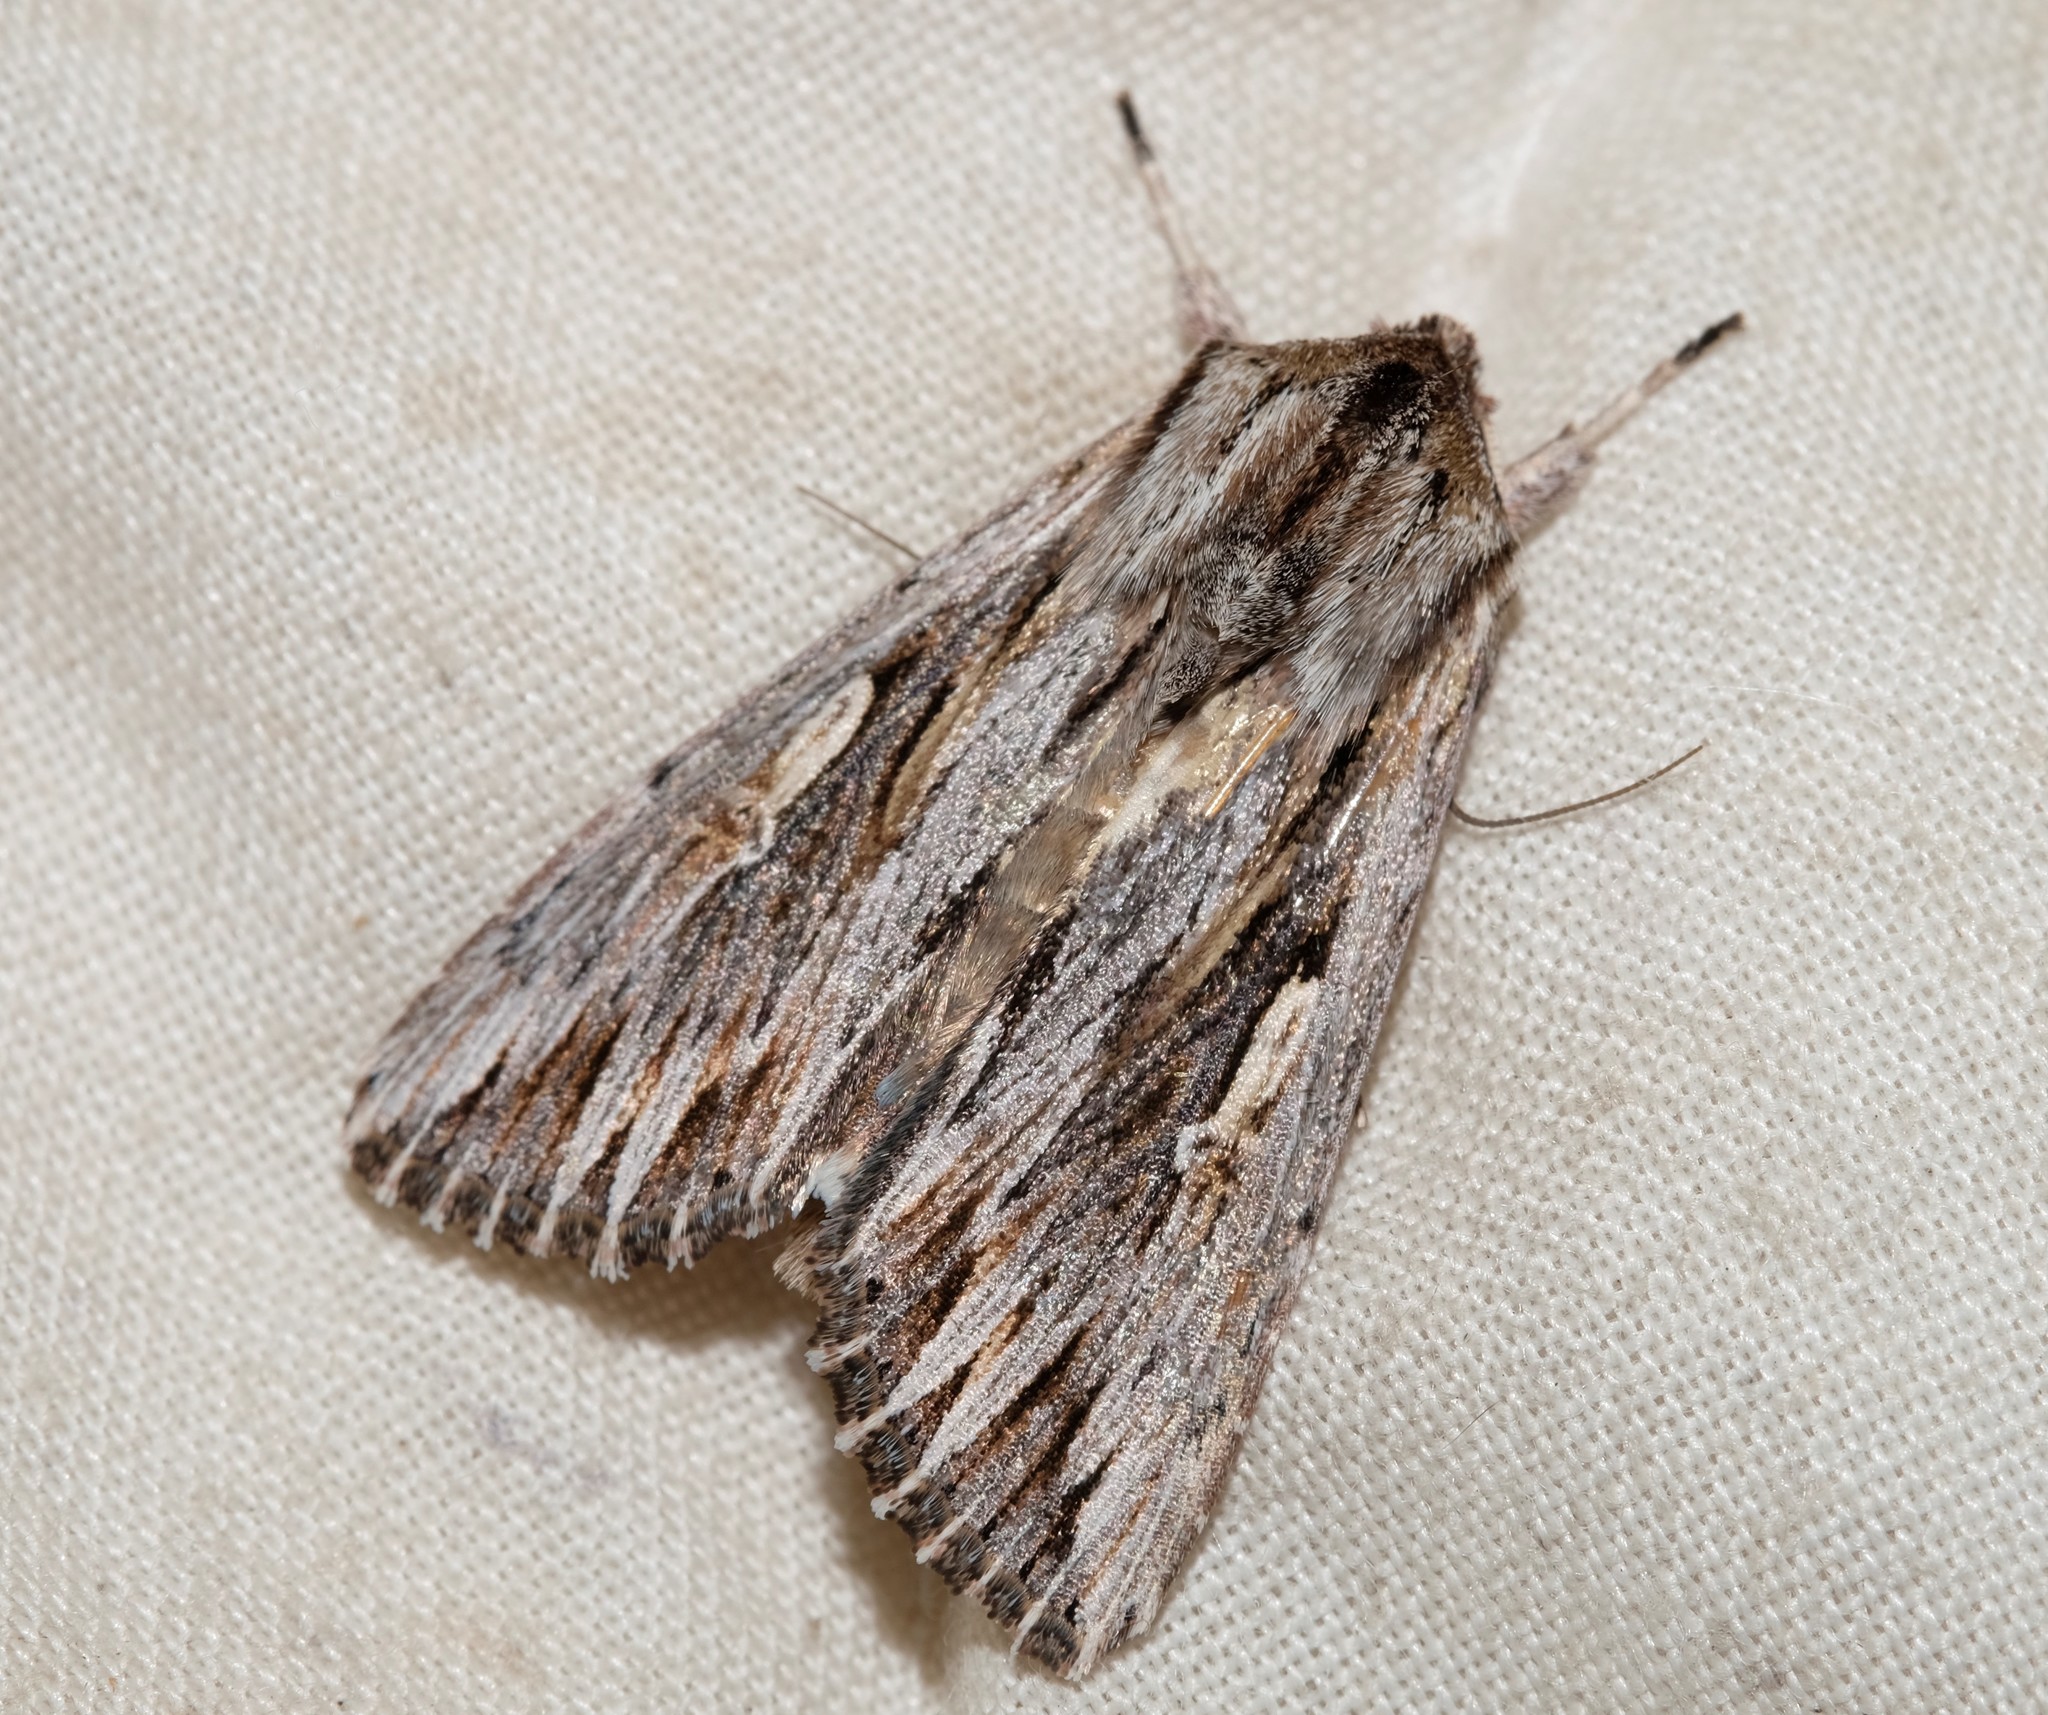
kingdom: Animalia
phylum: Arthropoda
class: Insecta
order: Lepidoptera
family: Noctuidae
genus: Persectania
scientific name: Persectania ewingii
